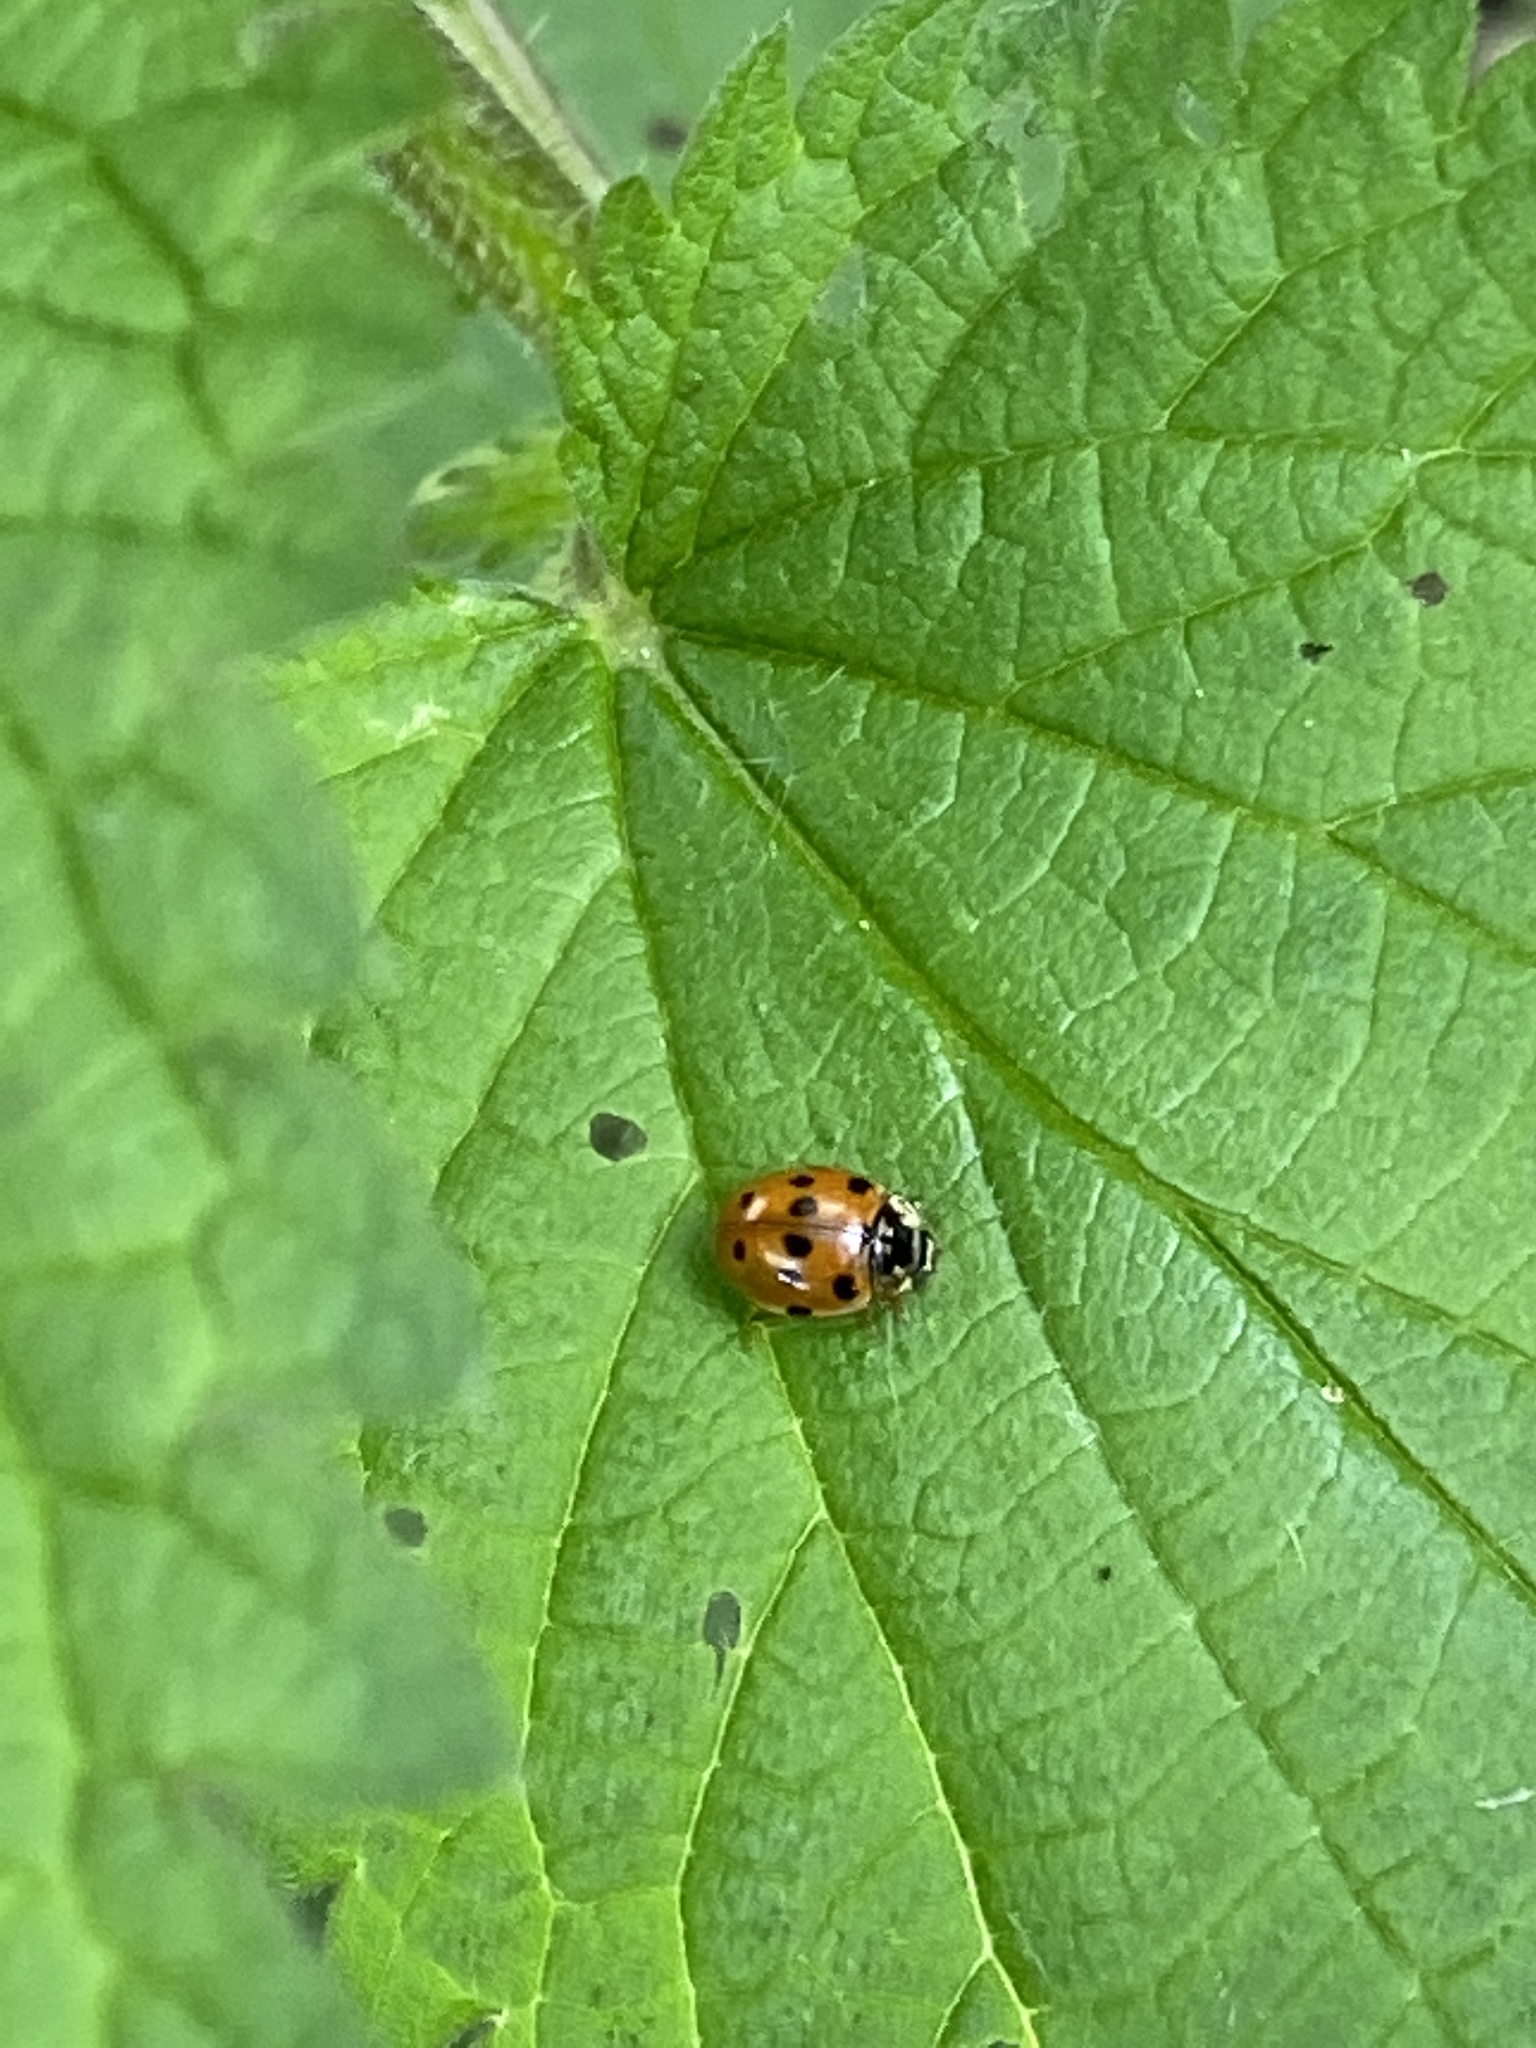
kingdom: Animalia
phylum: Arthropoda
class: Insecta
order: Coleoptera
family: Coccinellidae
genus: Adalia
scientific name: Adalia decempunctata
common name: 10-spot ladybird
